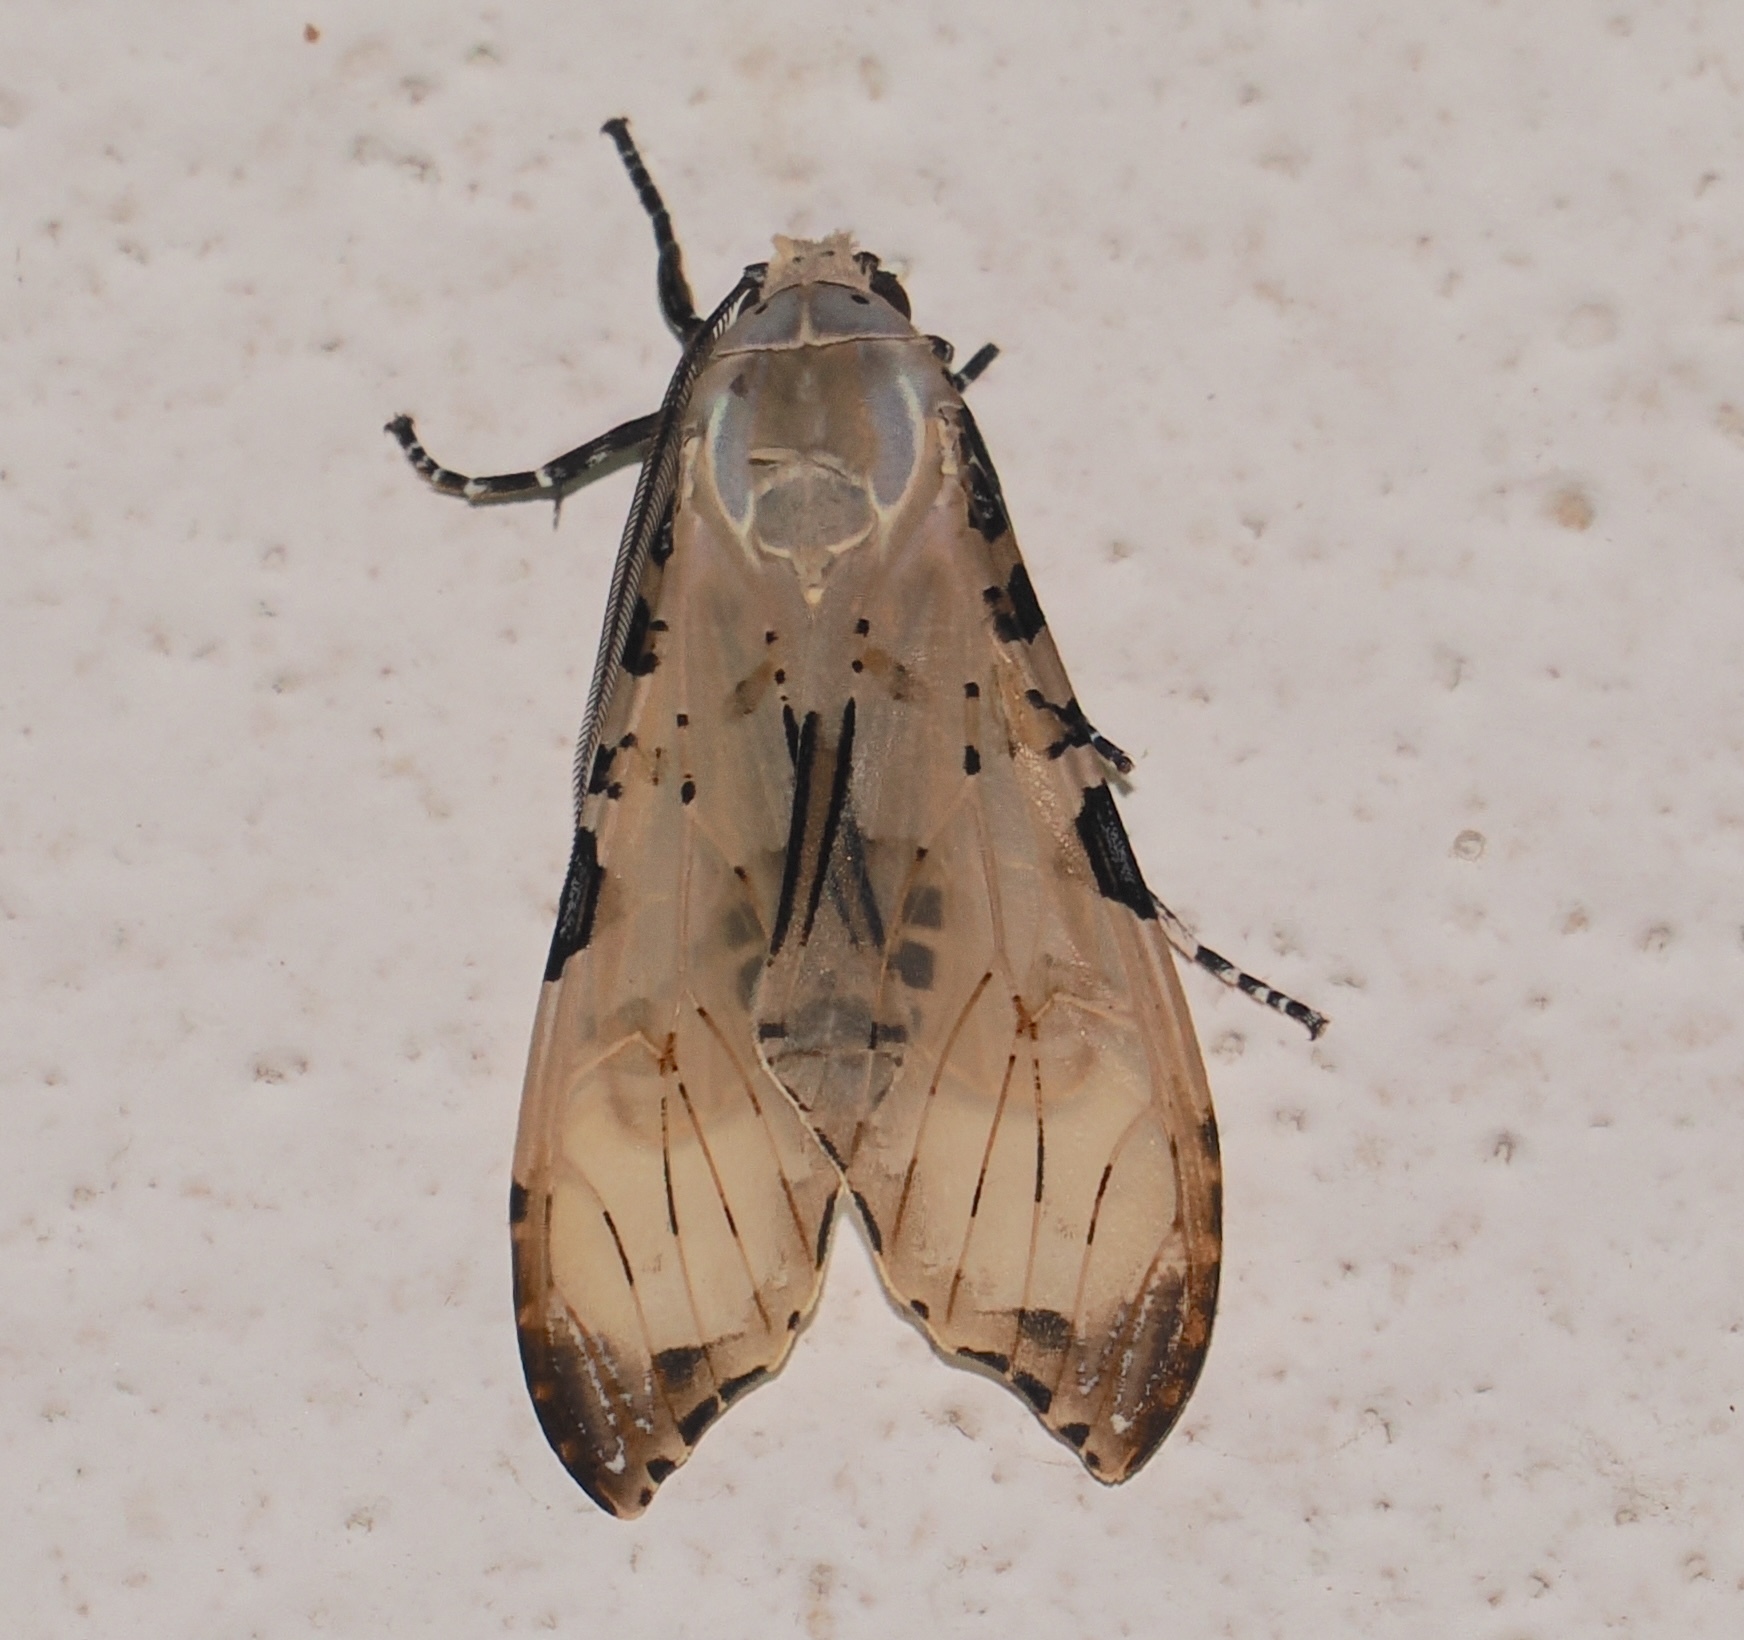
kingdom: Animalia
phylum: Arthropoda
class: Insecta
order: Lepidoptera
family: Erebidae
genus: Psychophasma
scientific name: Psychophasma erosa
